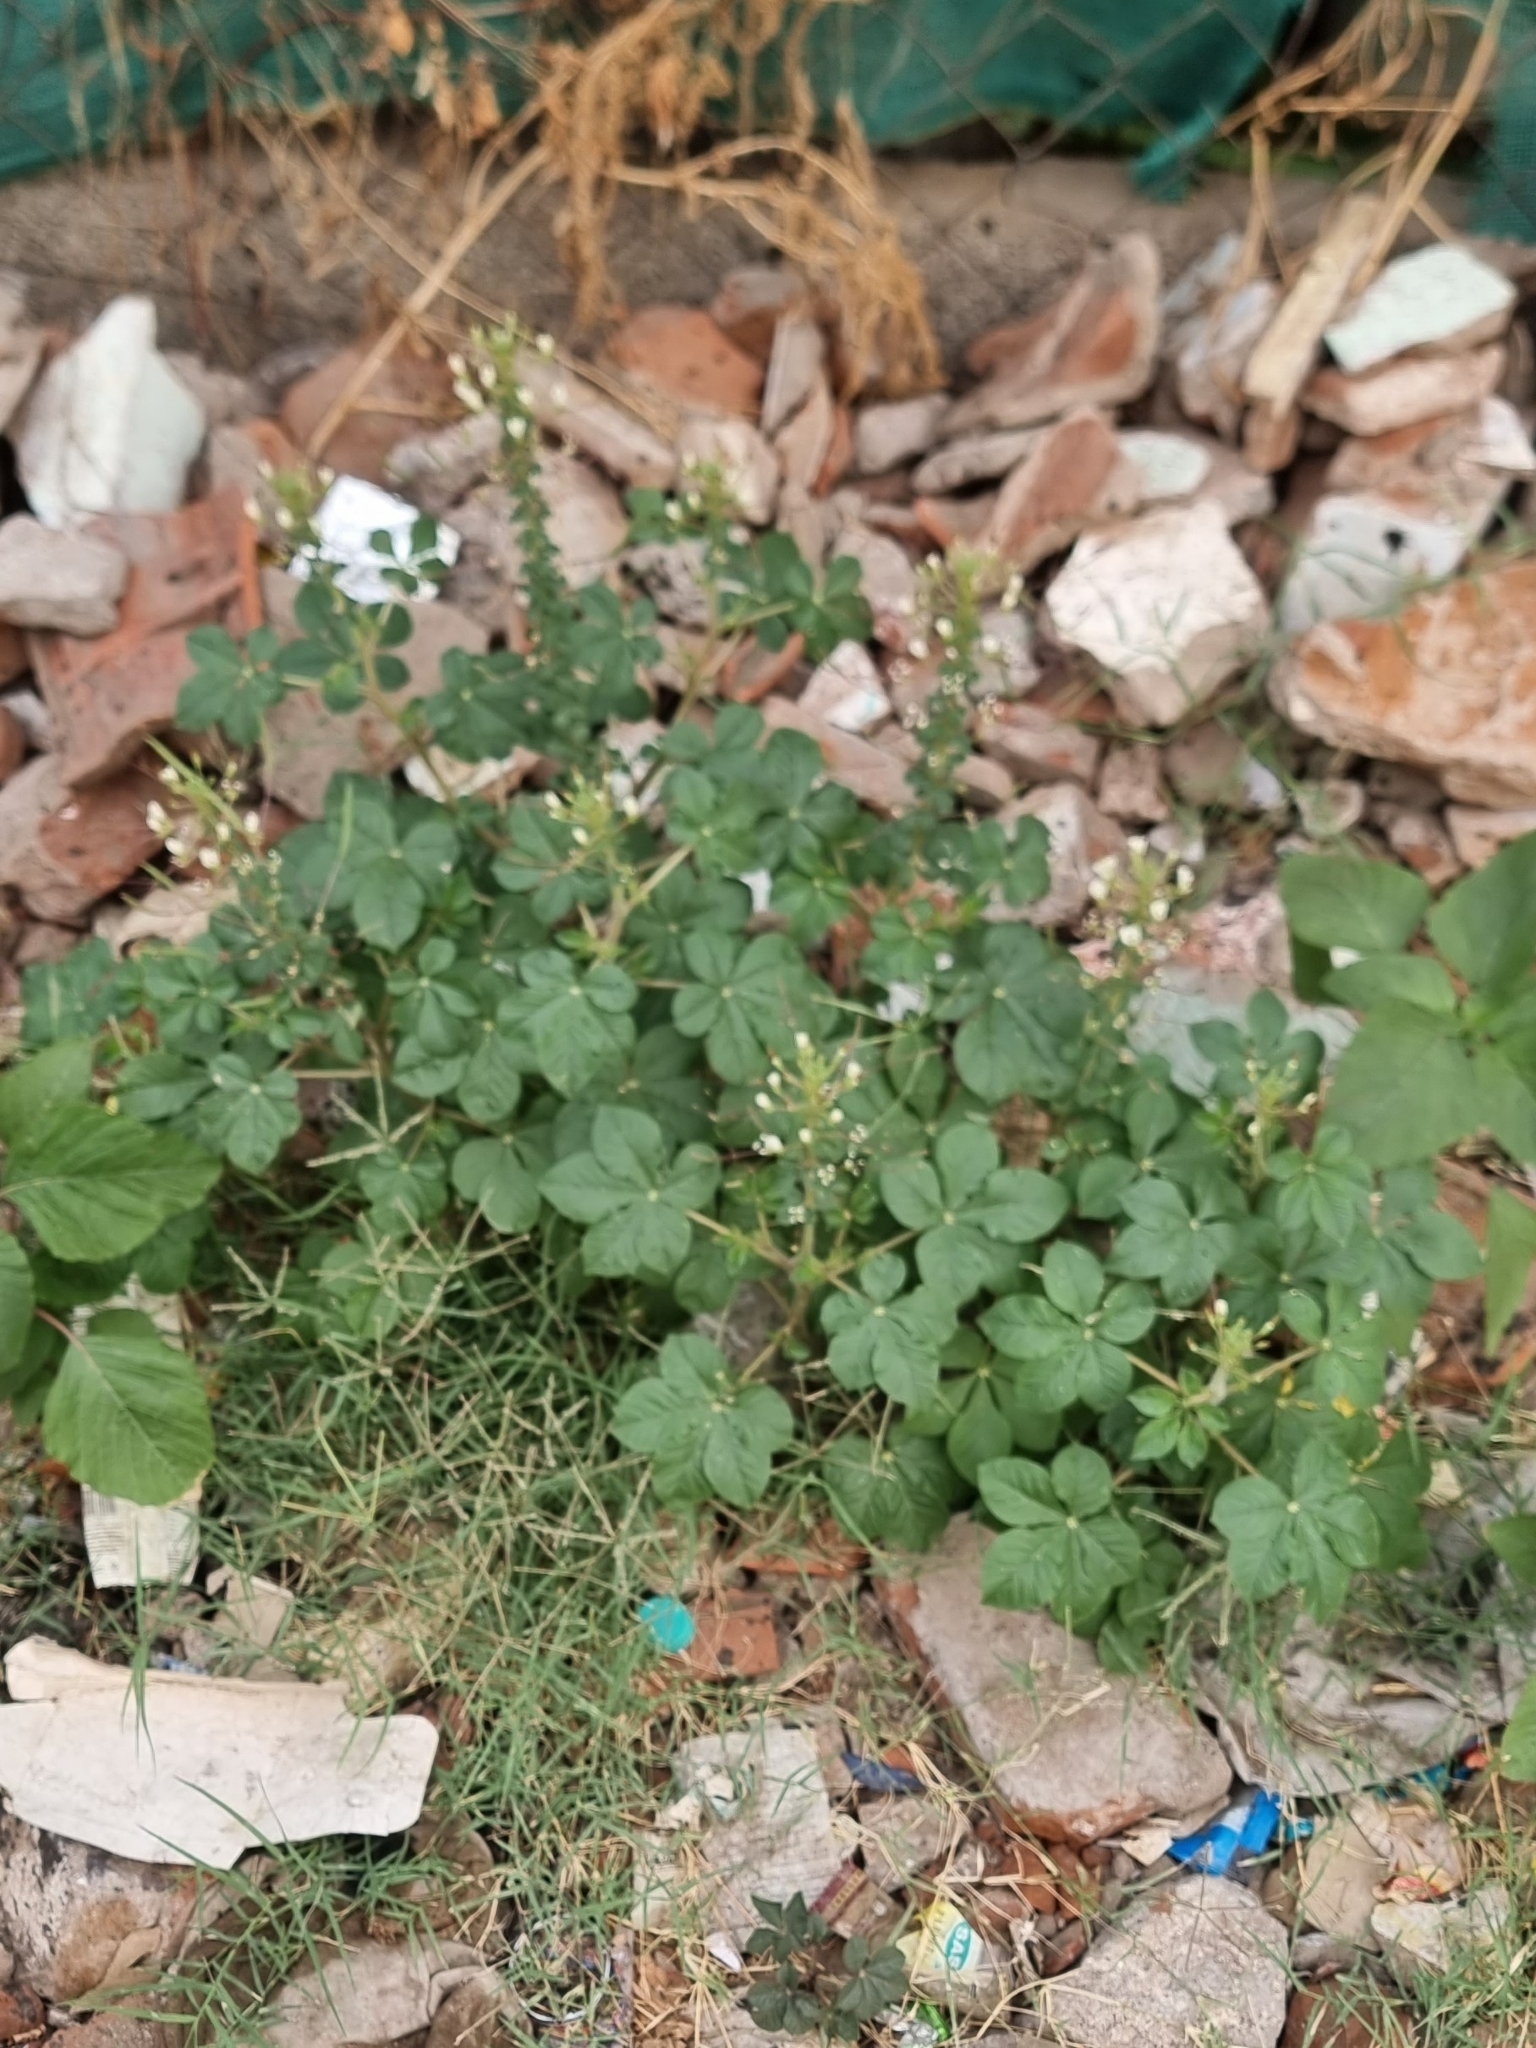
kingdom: Plantae
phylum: Tracheophyta
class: Magnoliopsida
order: Brassicales
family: Cleomaceae
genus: Gynandropsis
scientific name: Gynandropsis gynandra
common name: Spiderwisp
